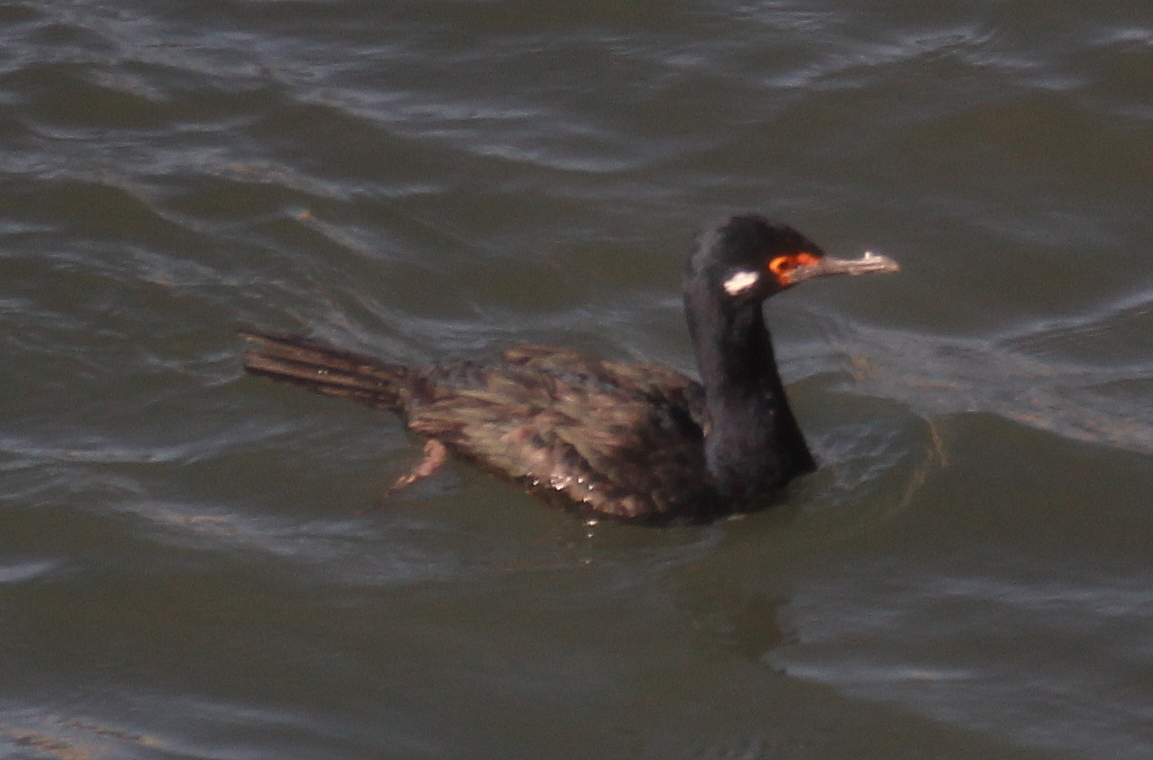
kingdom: Animalia
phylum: Chordata
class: Aves
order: Suliformes
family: Phalacrocoracidae
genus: Phalacrocorax
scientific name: Phalacrocorax magellanicus
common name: Rock shag
